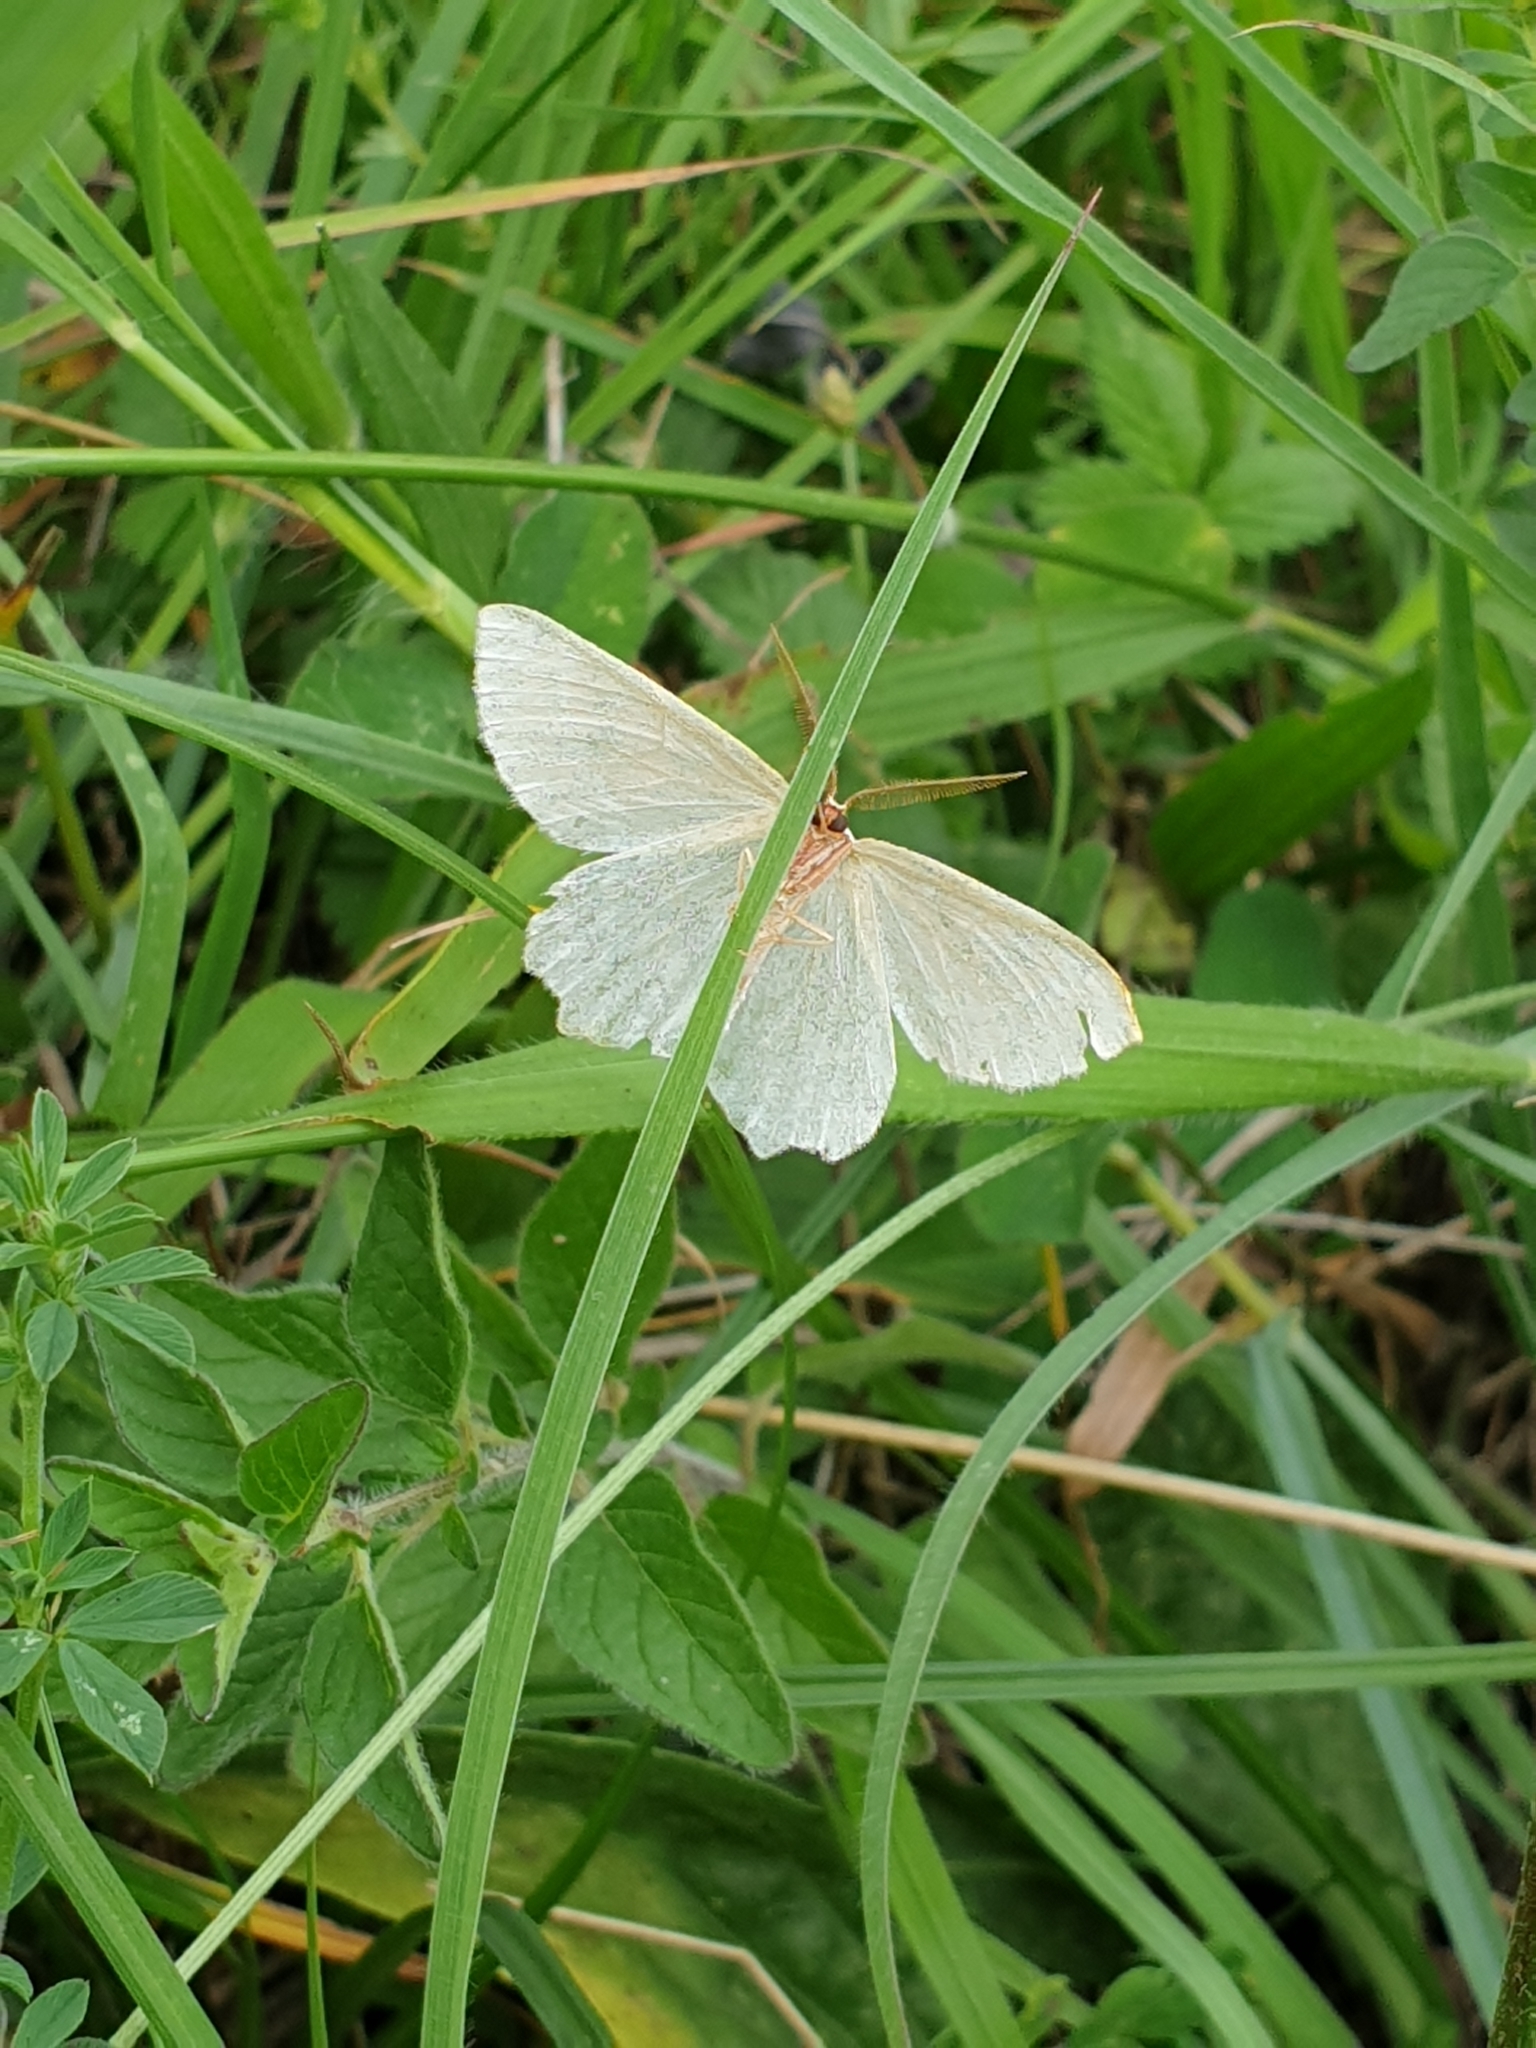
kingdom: Animalia
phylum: Arthropoda
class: Insecta
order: Lepidoptera
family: Geometridae
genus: Thalera
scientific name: Thalera fimbrialis
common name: Sussex emerald
